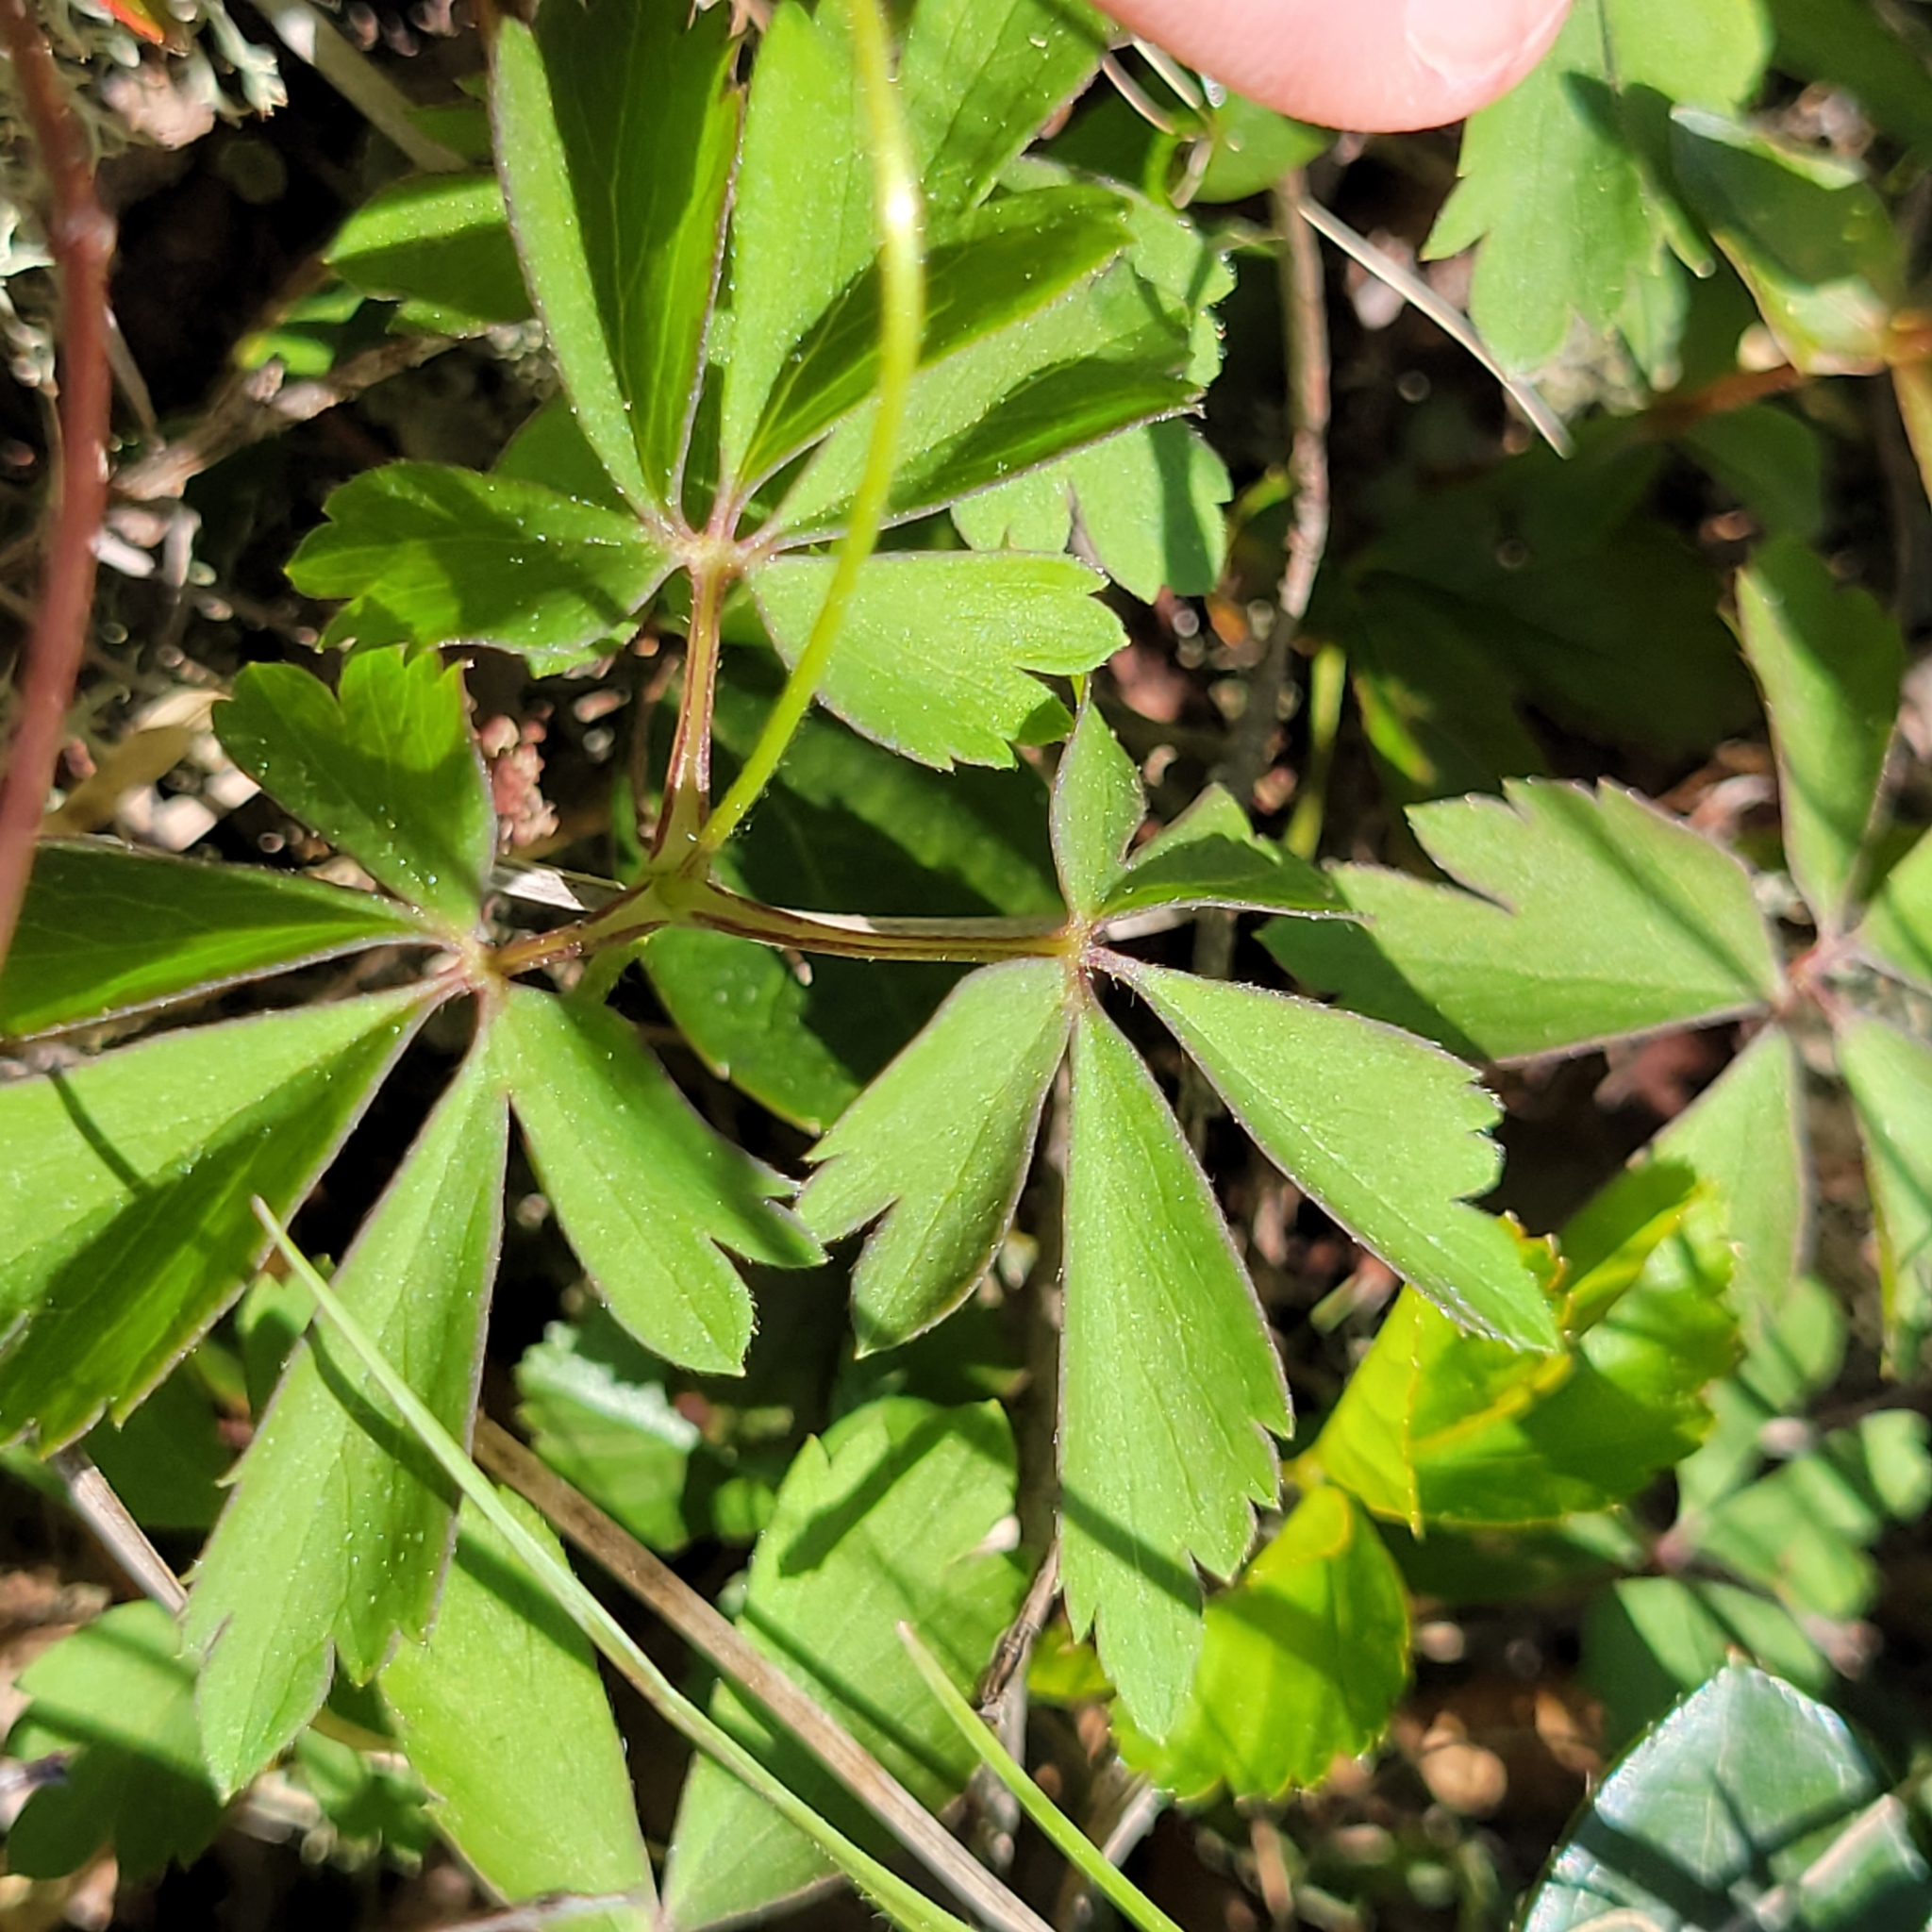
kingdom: Plantae
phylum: Tracheophyta
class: Magnoliopsida
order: Ranunculales
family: Ranunculaceae
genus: Anemone
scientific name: Anemone quinquefolia
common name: Wood anemone
